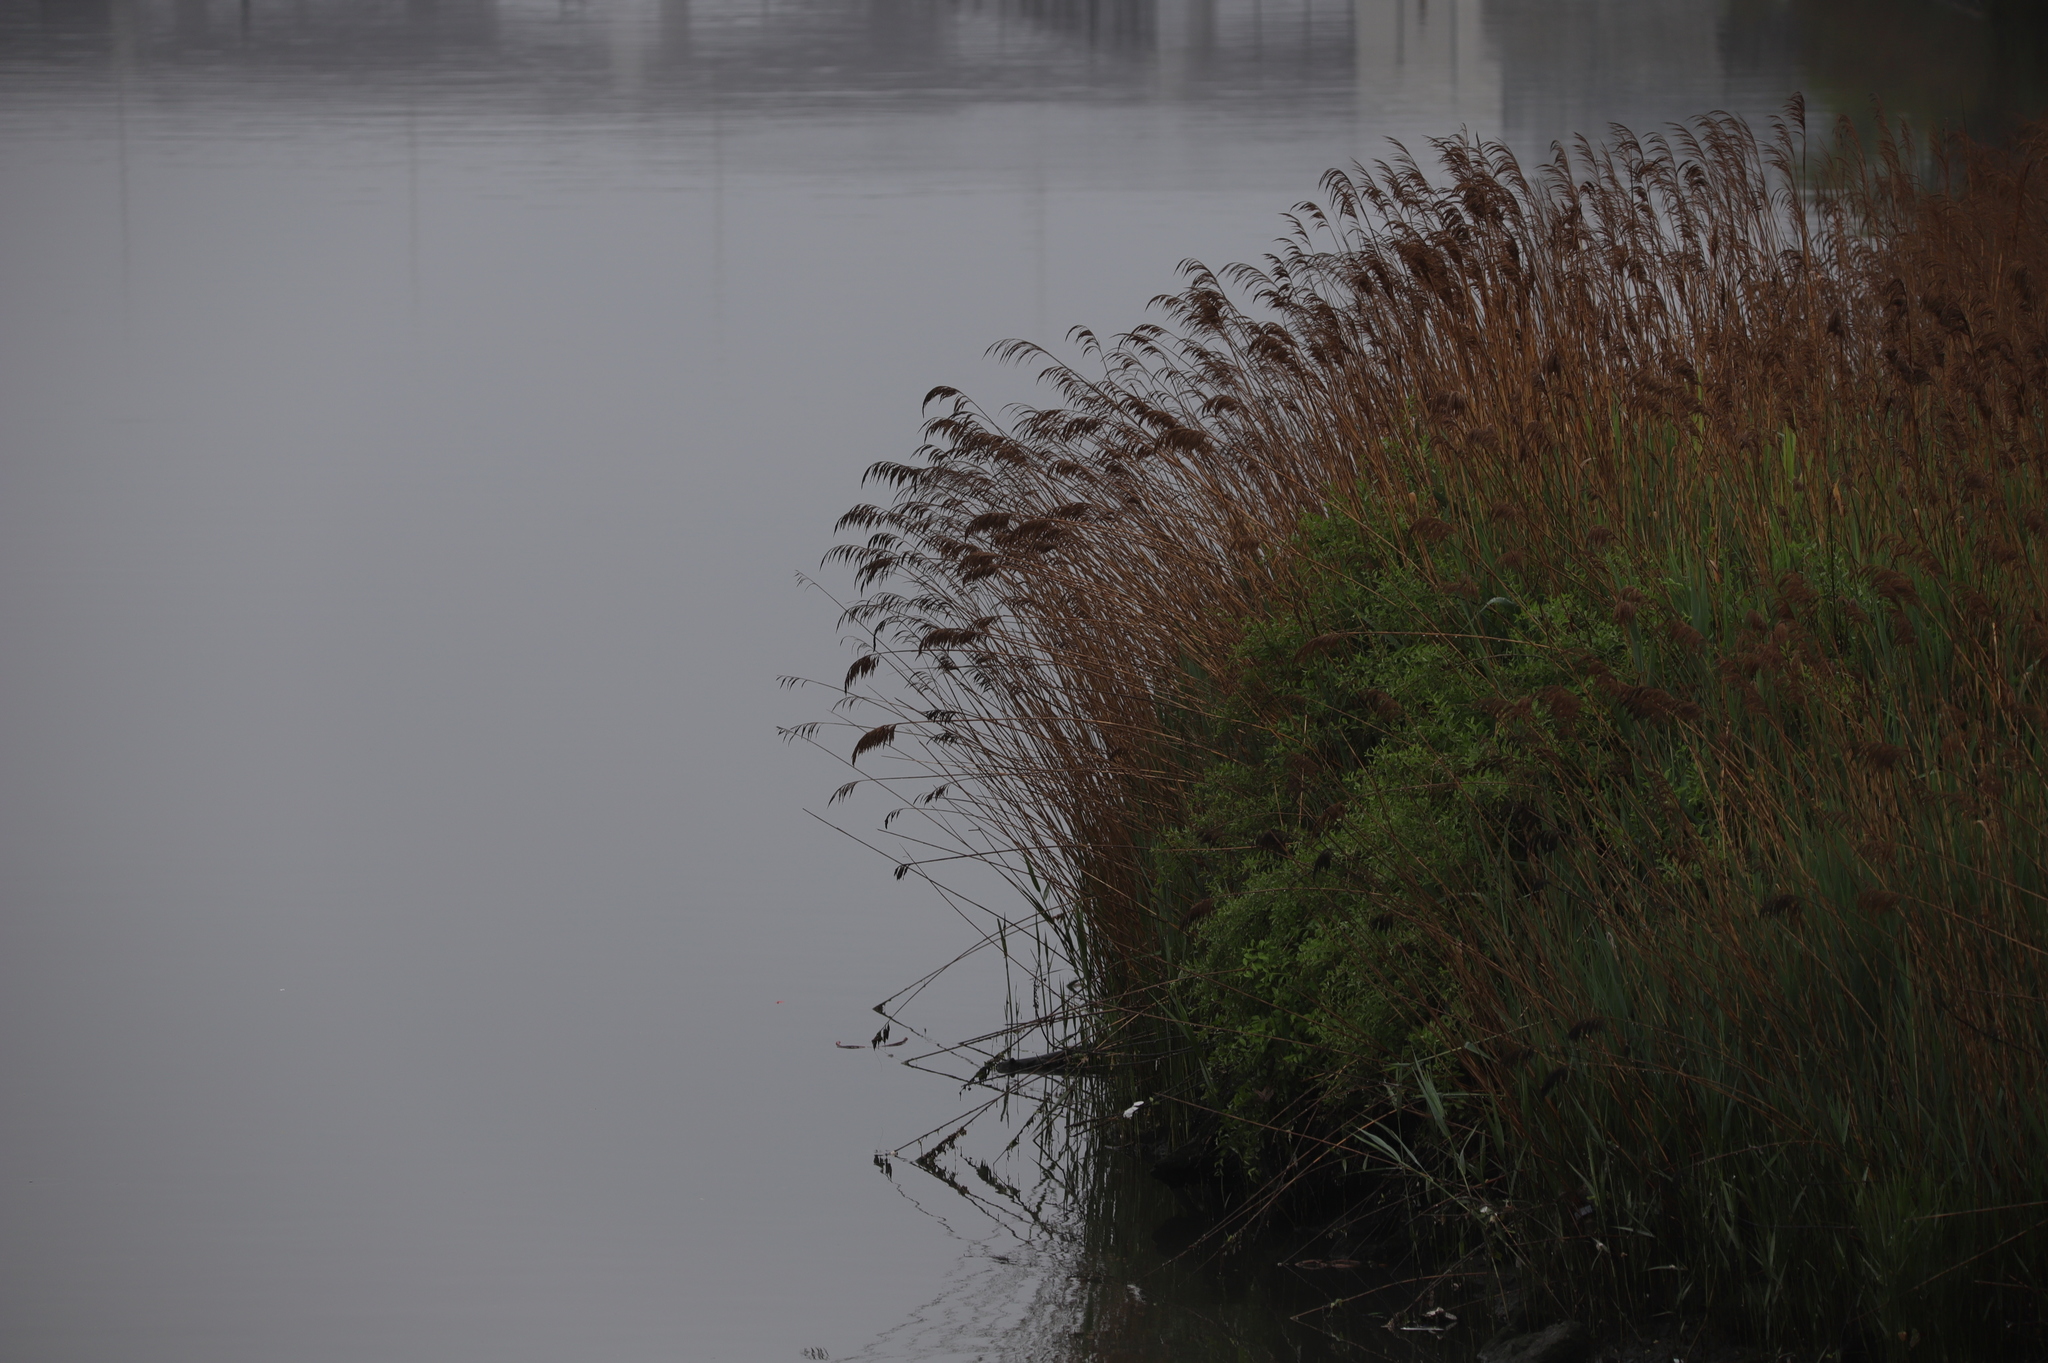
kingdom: Plantae
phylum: Tracheophyta
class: Liliopsida
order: Poales
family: Poaceae
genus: Phragmites
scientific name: Phragmites australis
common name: Common reed
